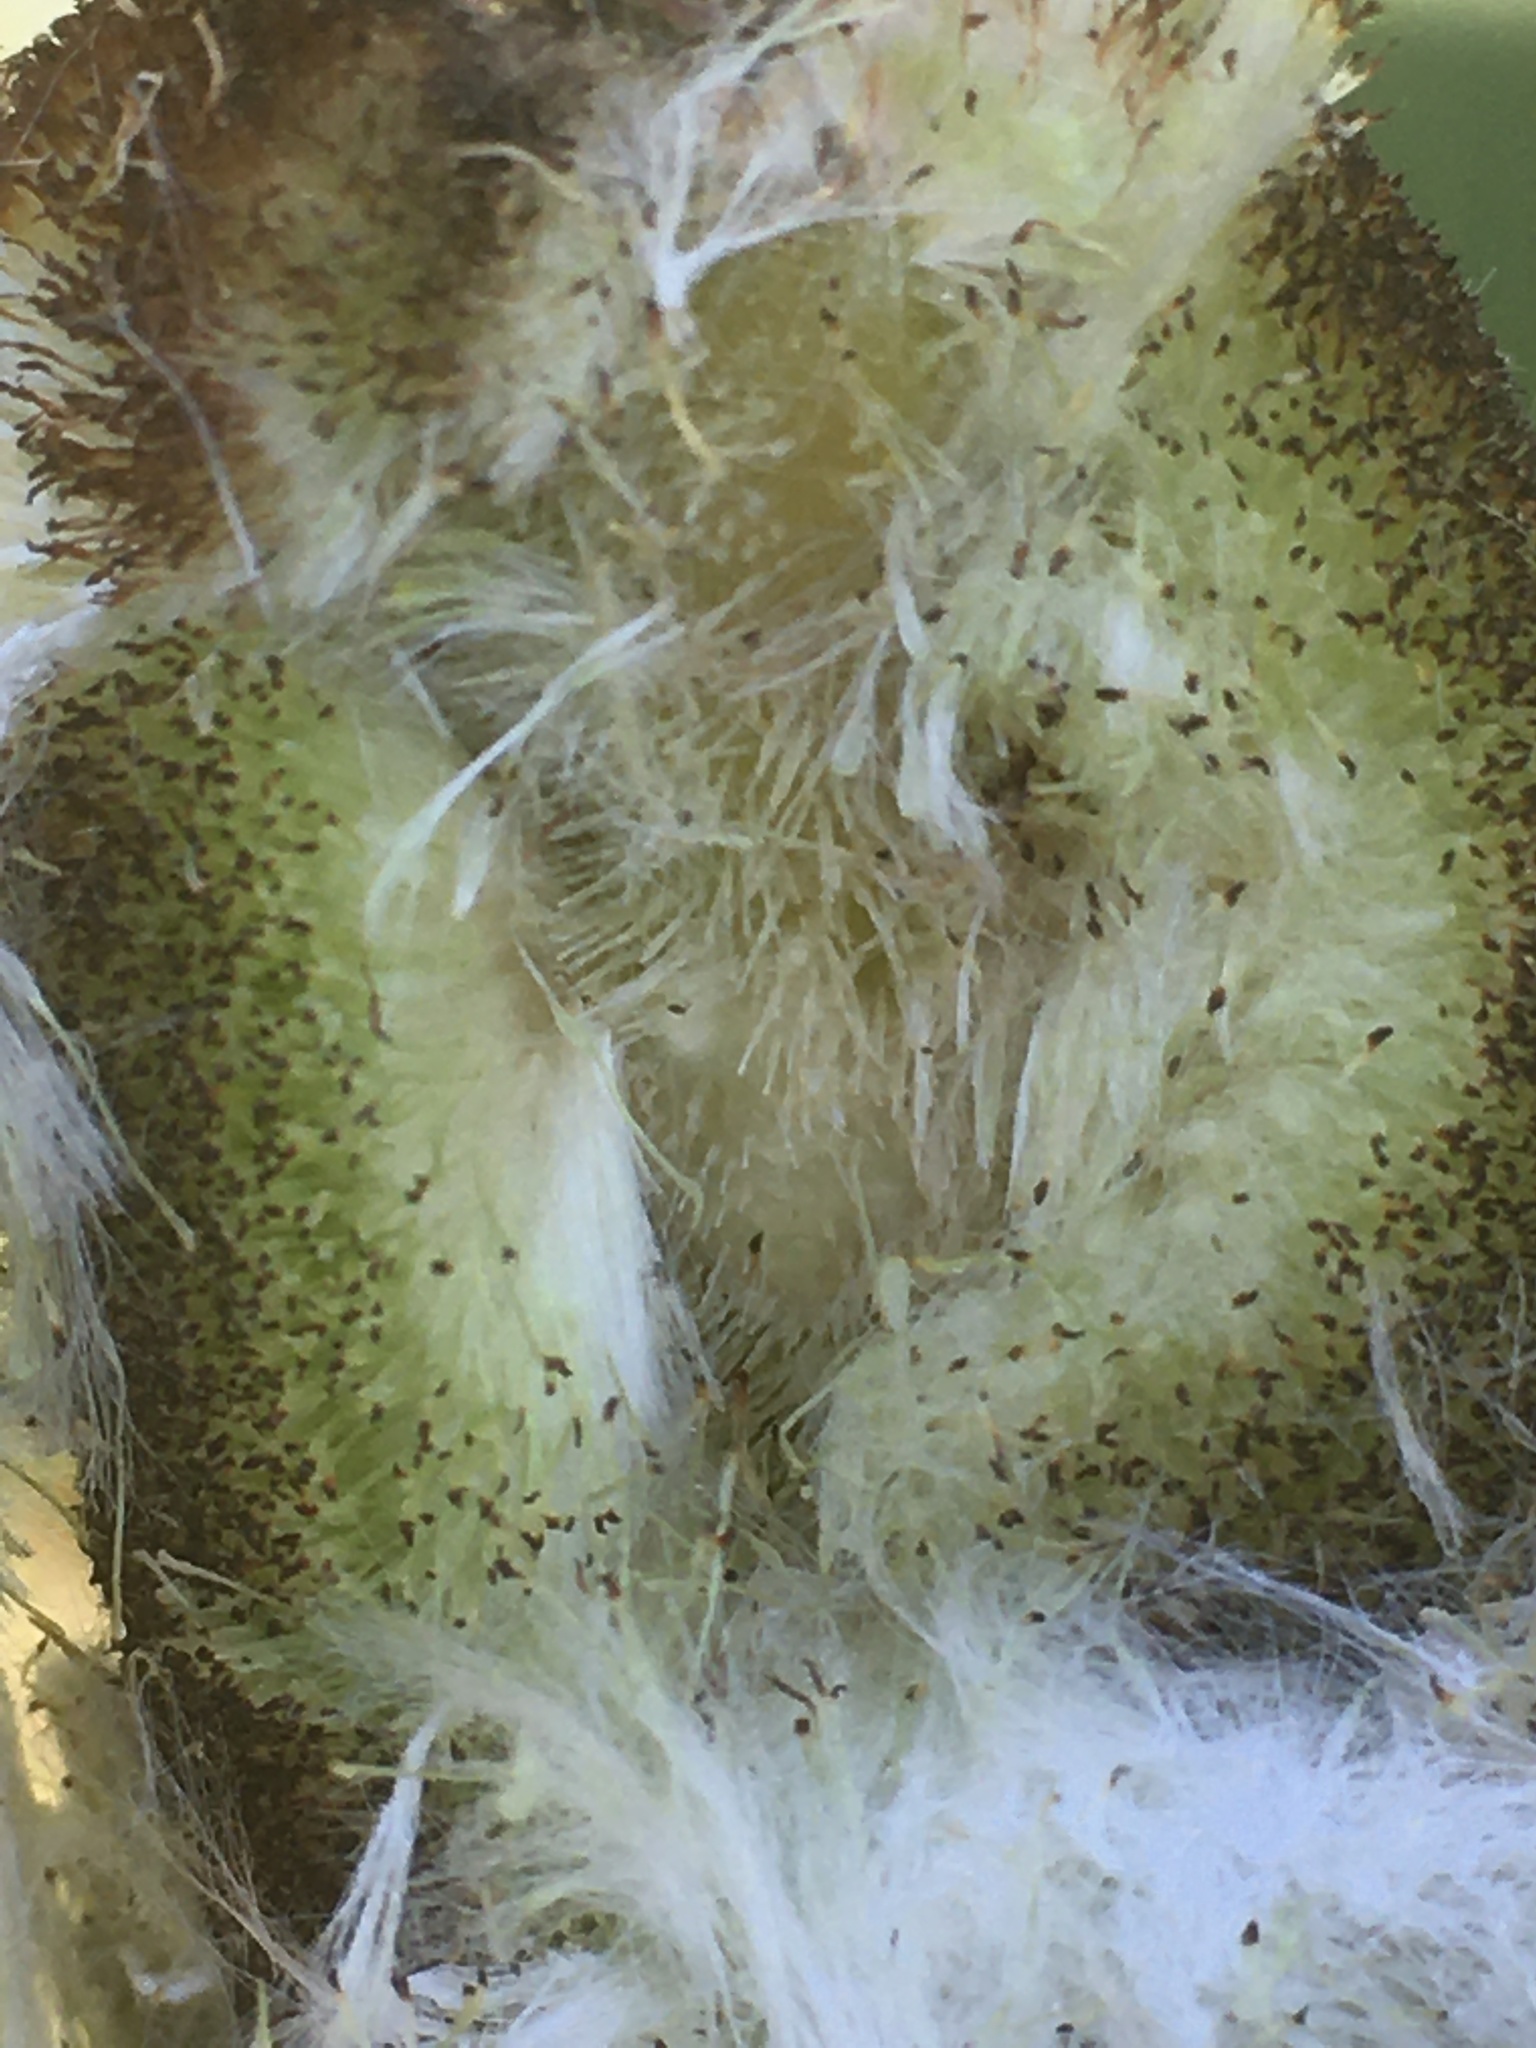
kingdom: Plantae
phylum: Tracheophyta
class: Liliopsida
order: Poales
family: Typhaceae
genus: Typha
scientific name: Typha latifolia
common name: Broadleaf cattail
